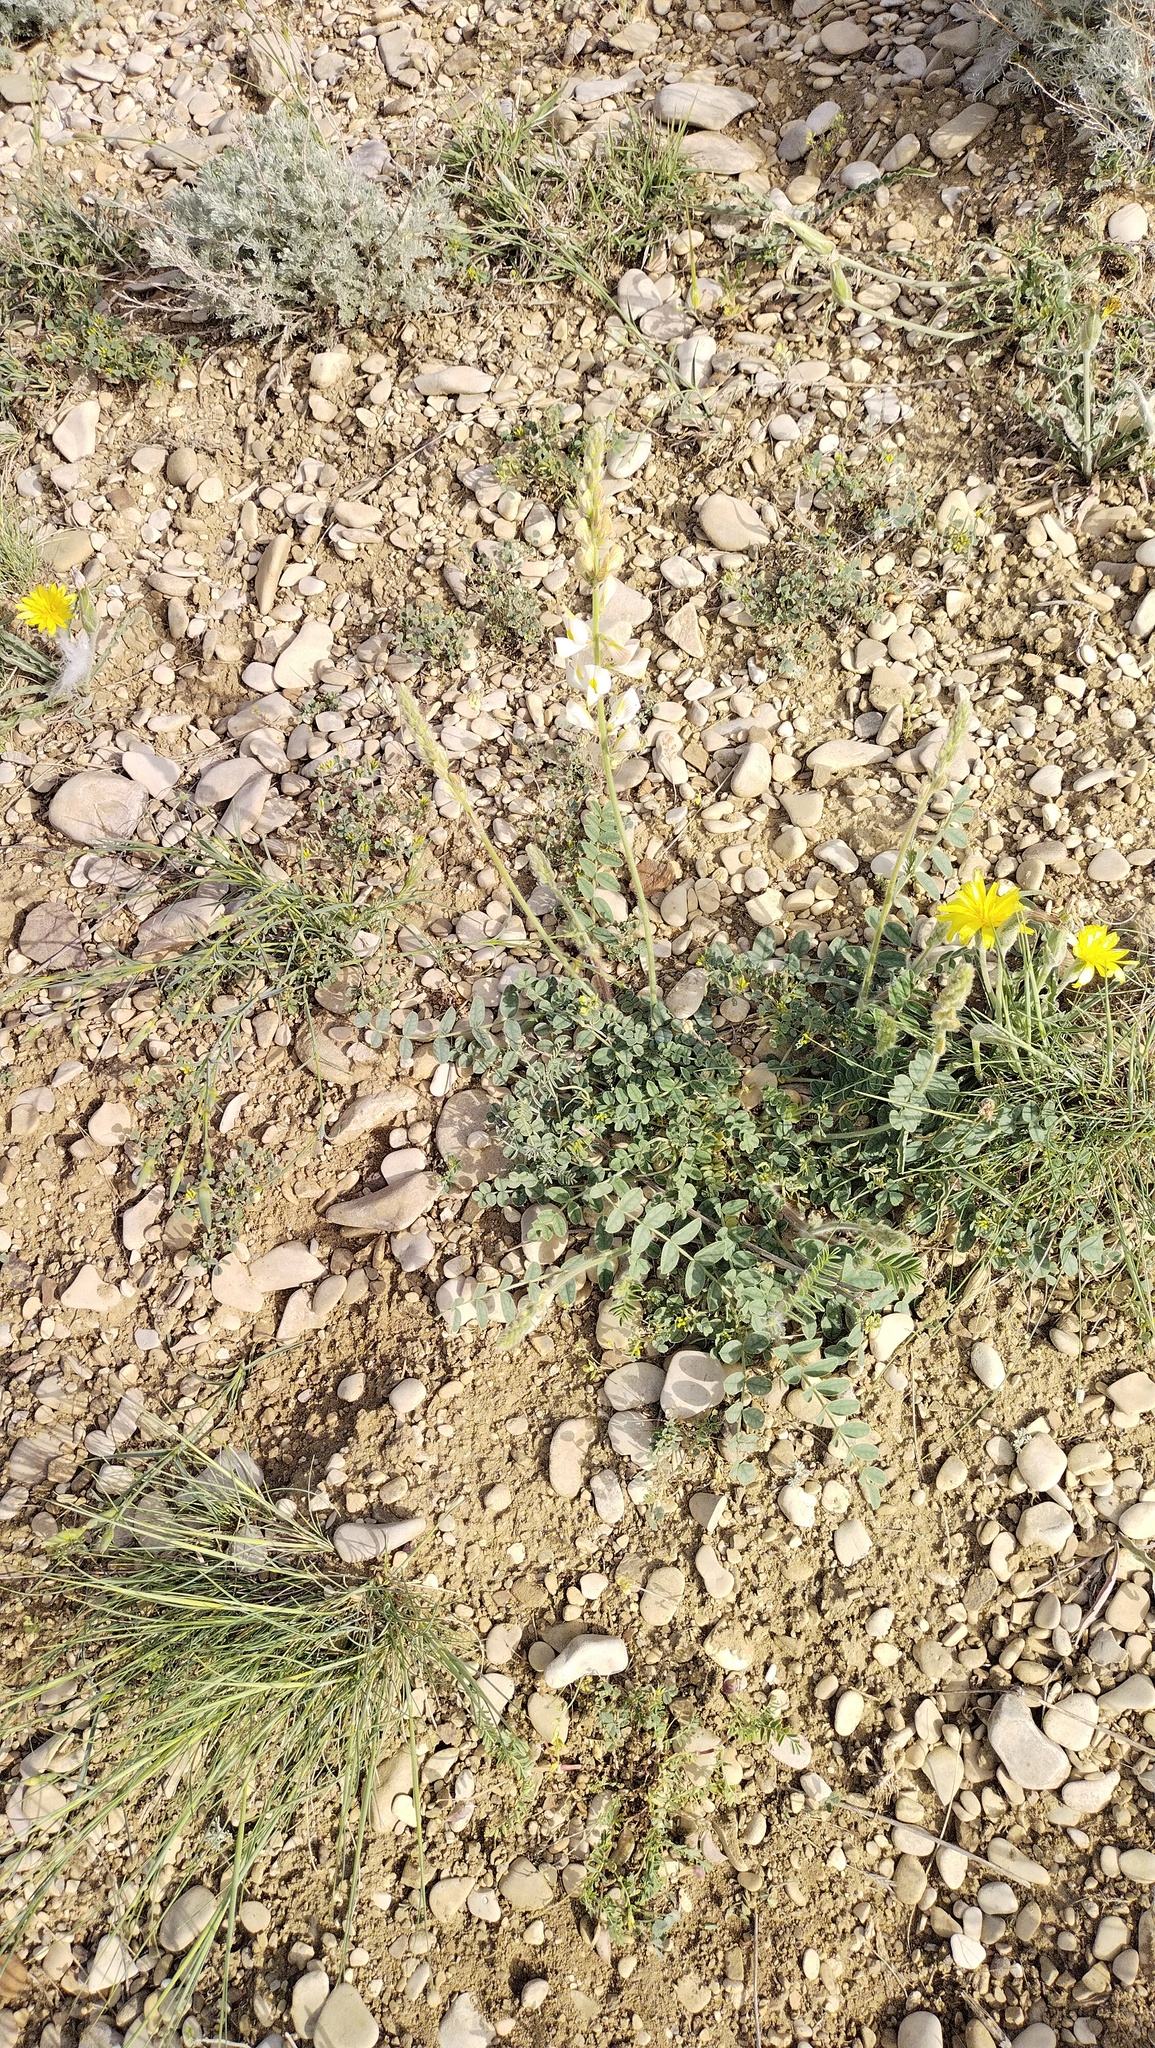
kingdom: Plantae
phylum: Tracheophyta
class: Magnoliopsida
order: Fabales
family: Fabaceae
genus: Onobrychis
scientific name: Onobrychis majorovii
